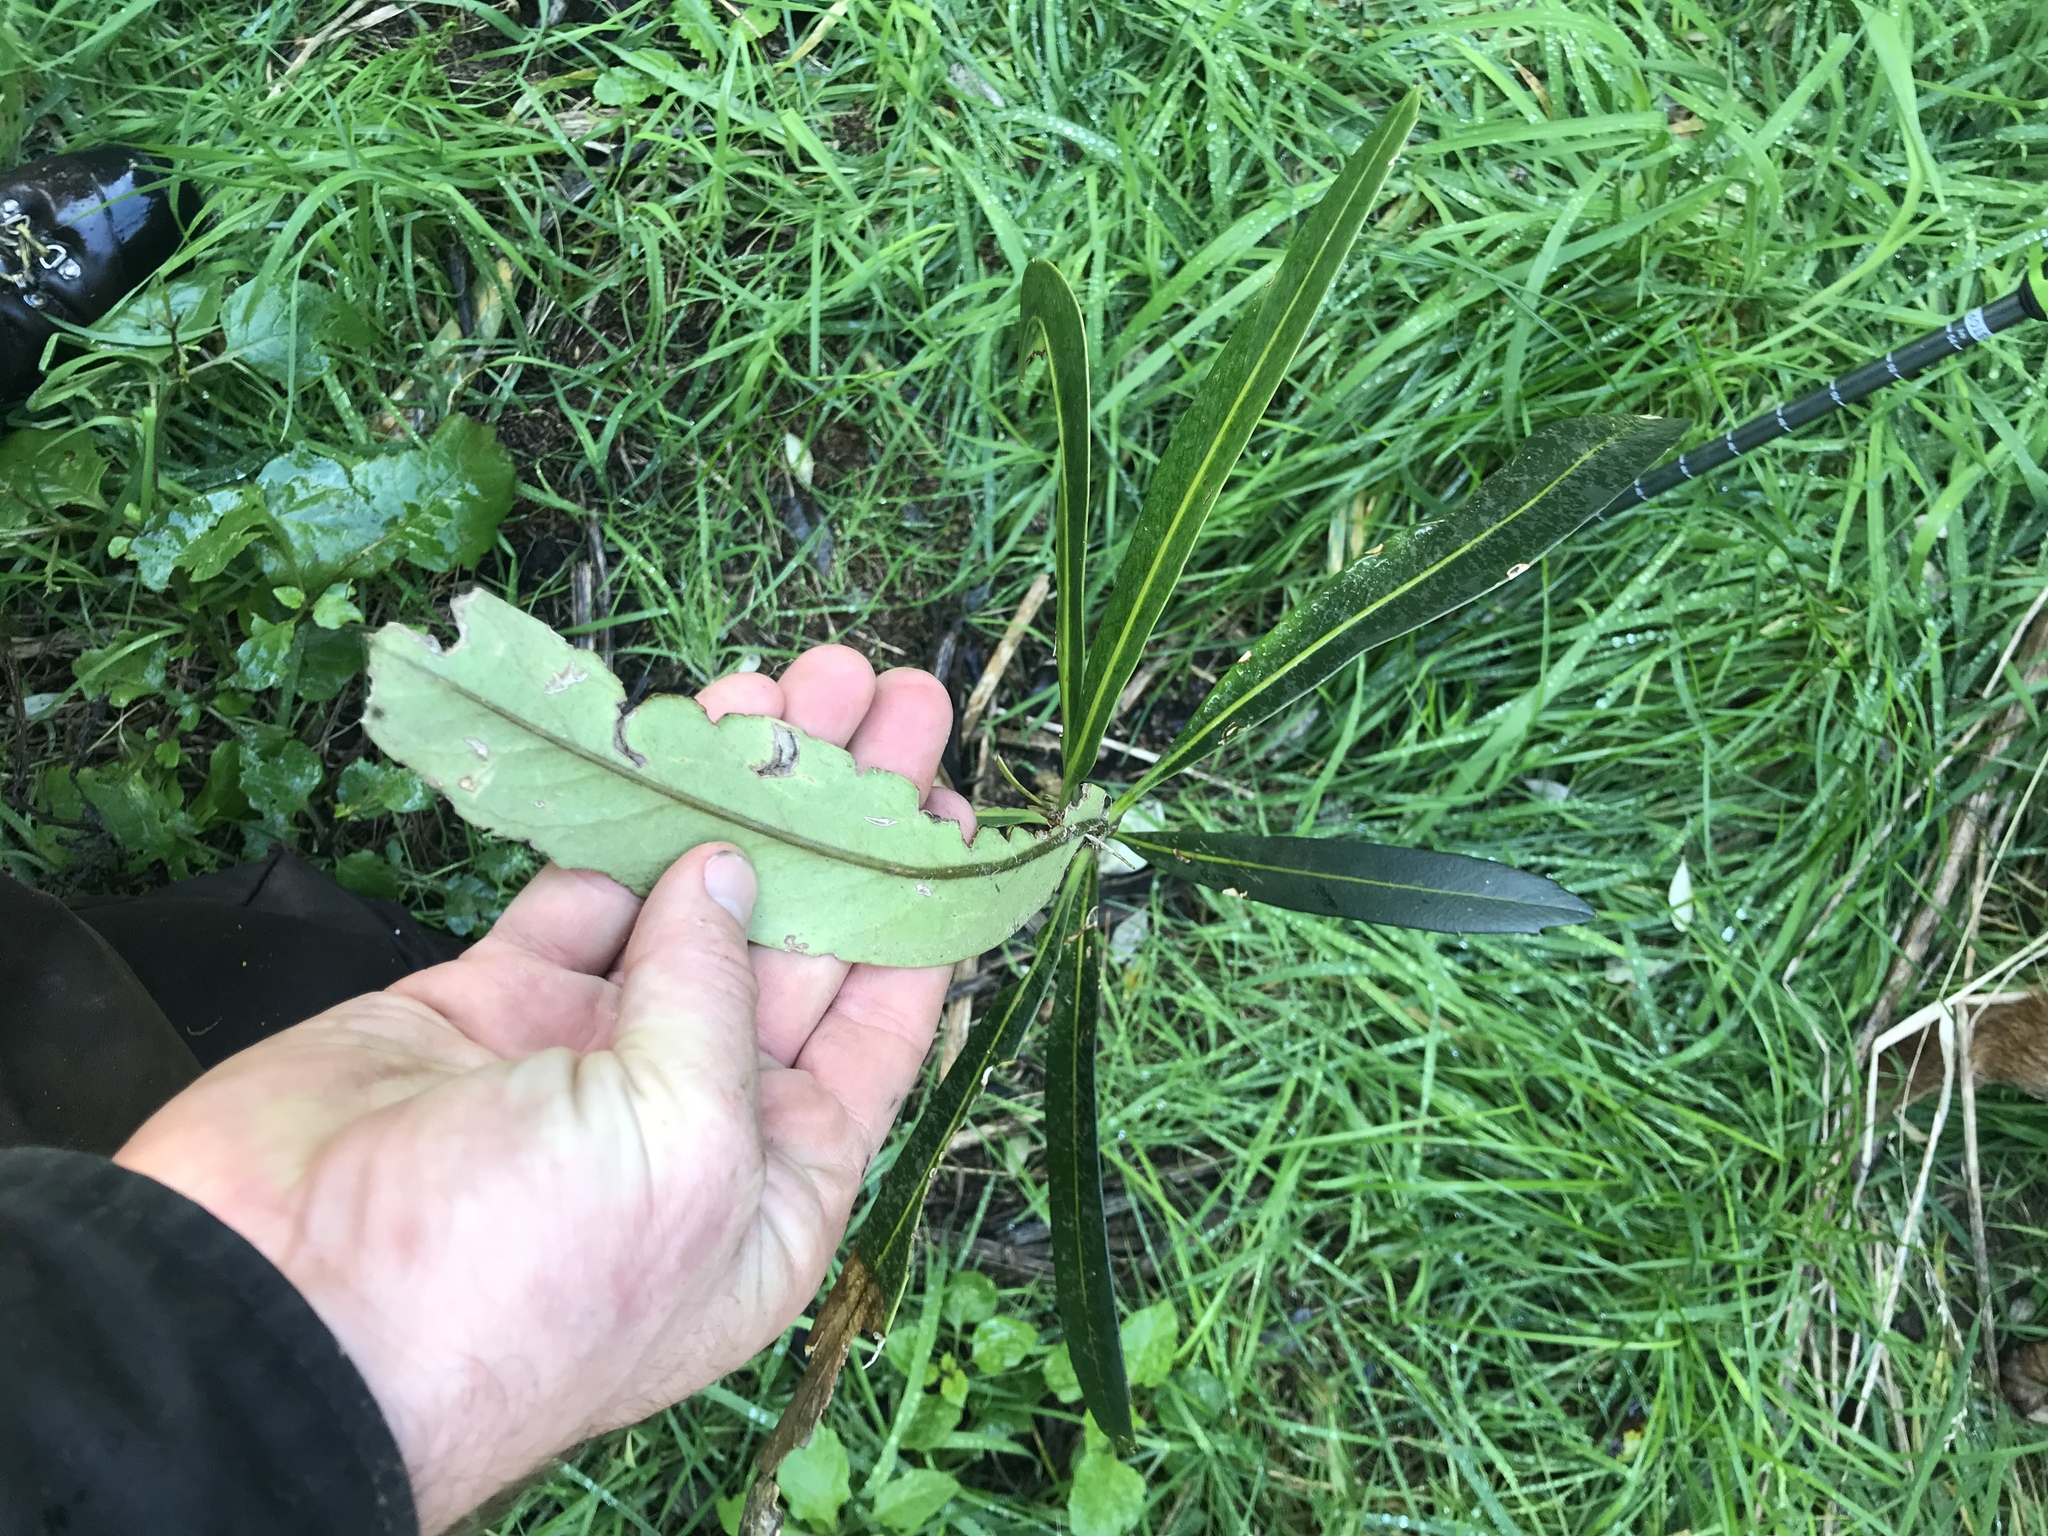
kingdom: Plantae
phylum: Tracheophyta
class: Magnoliopsida
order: Apiales
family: Araliaceae
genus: Pseudopanax
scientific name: Pseudopanax chathamicus
